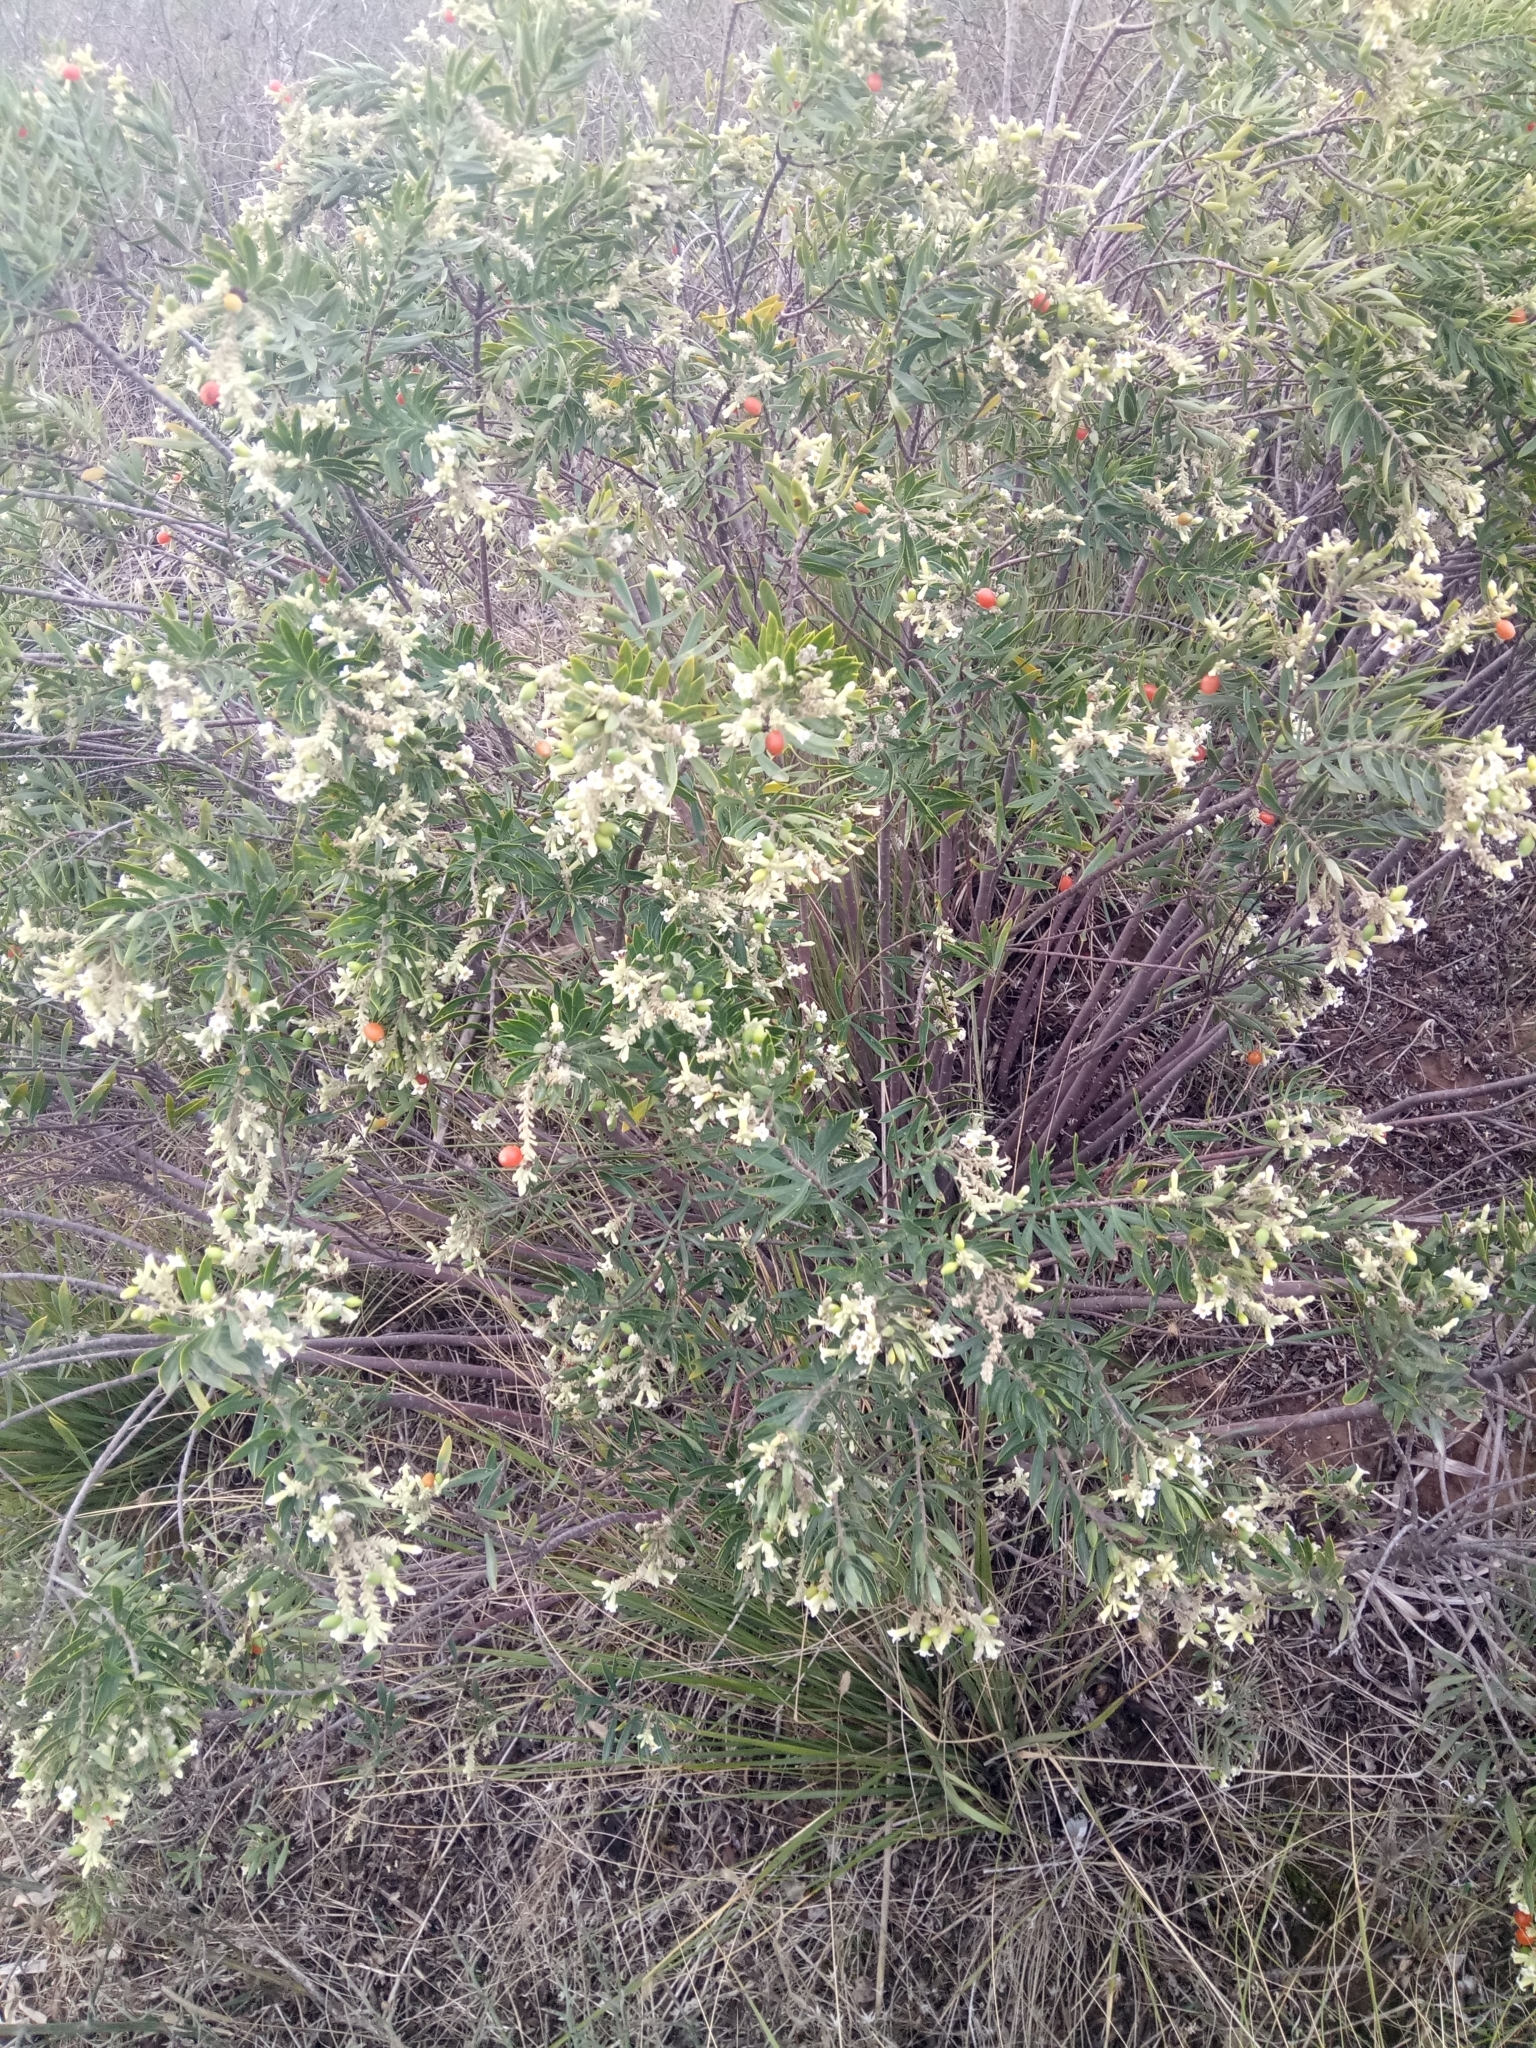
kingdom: Plantae
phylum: Tracheophyta
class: Magnoliopsida
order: Malvales
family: Thymelaeaceae
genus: Daphne
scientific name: Daphne gnidium
